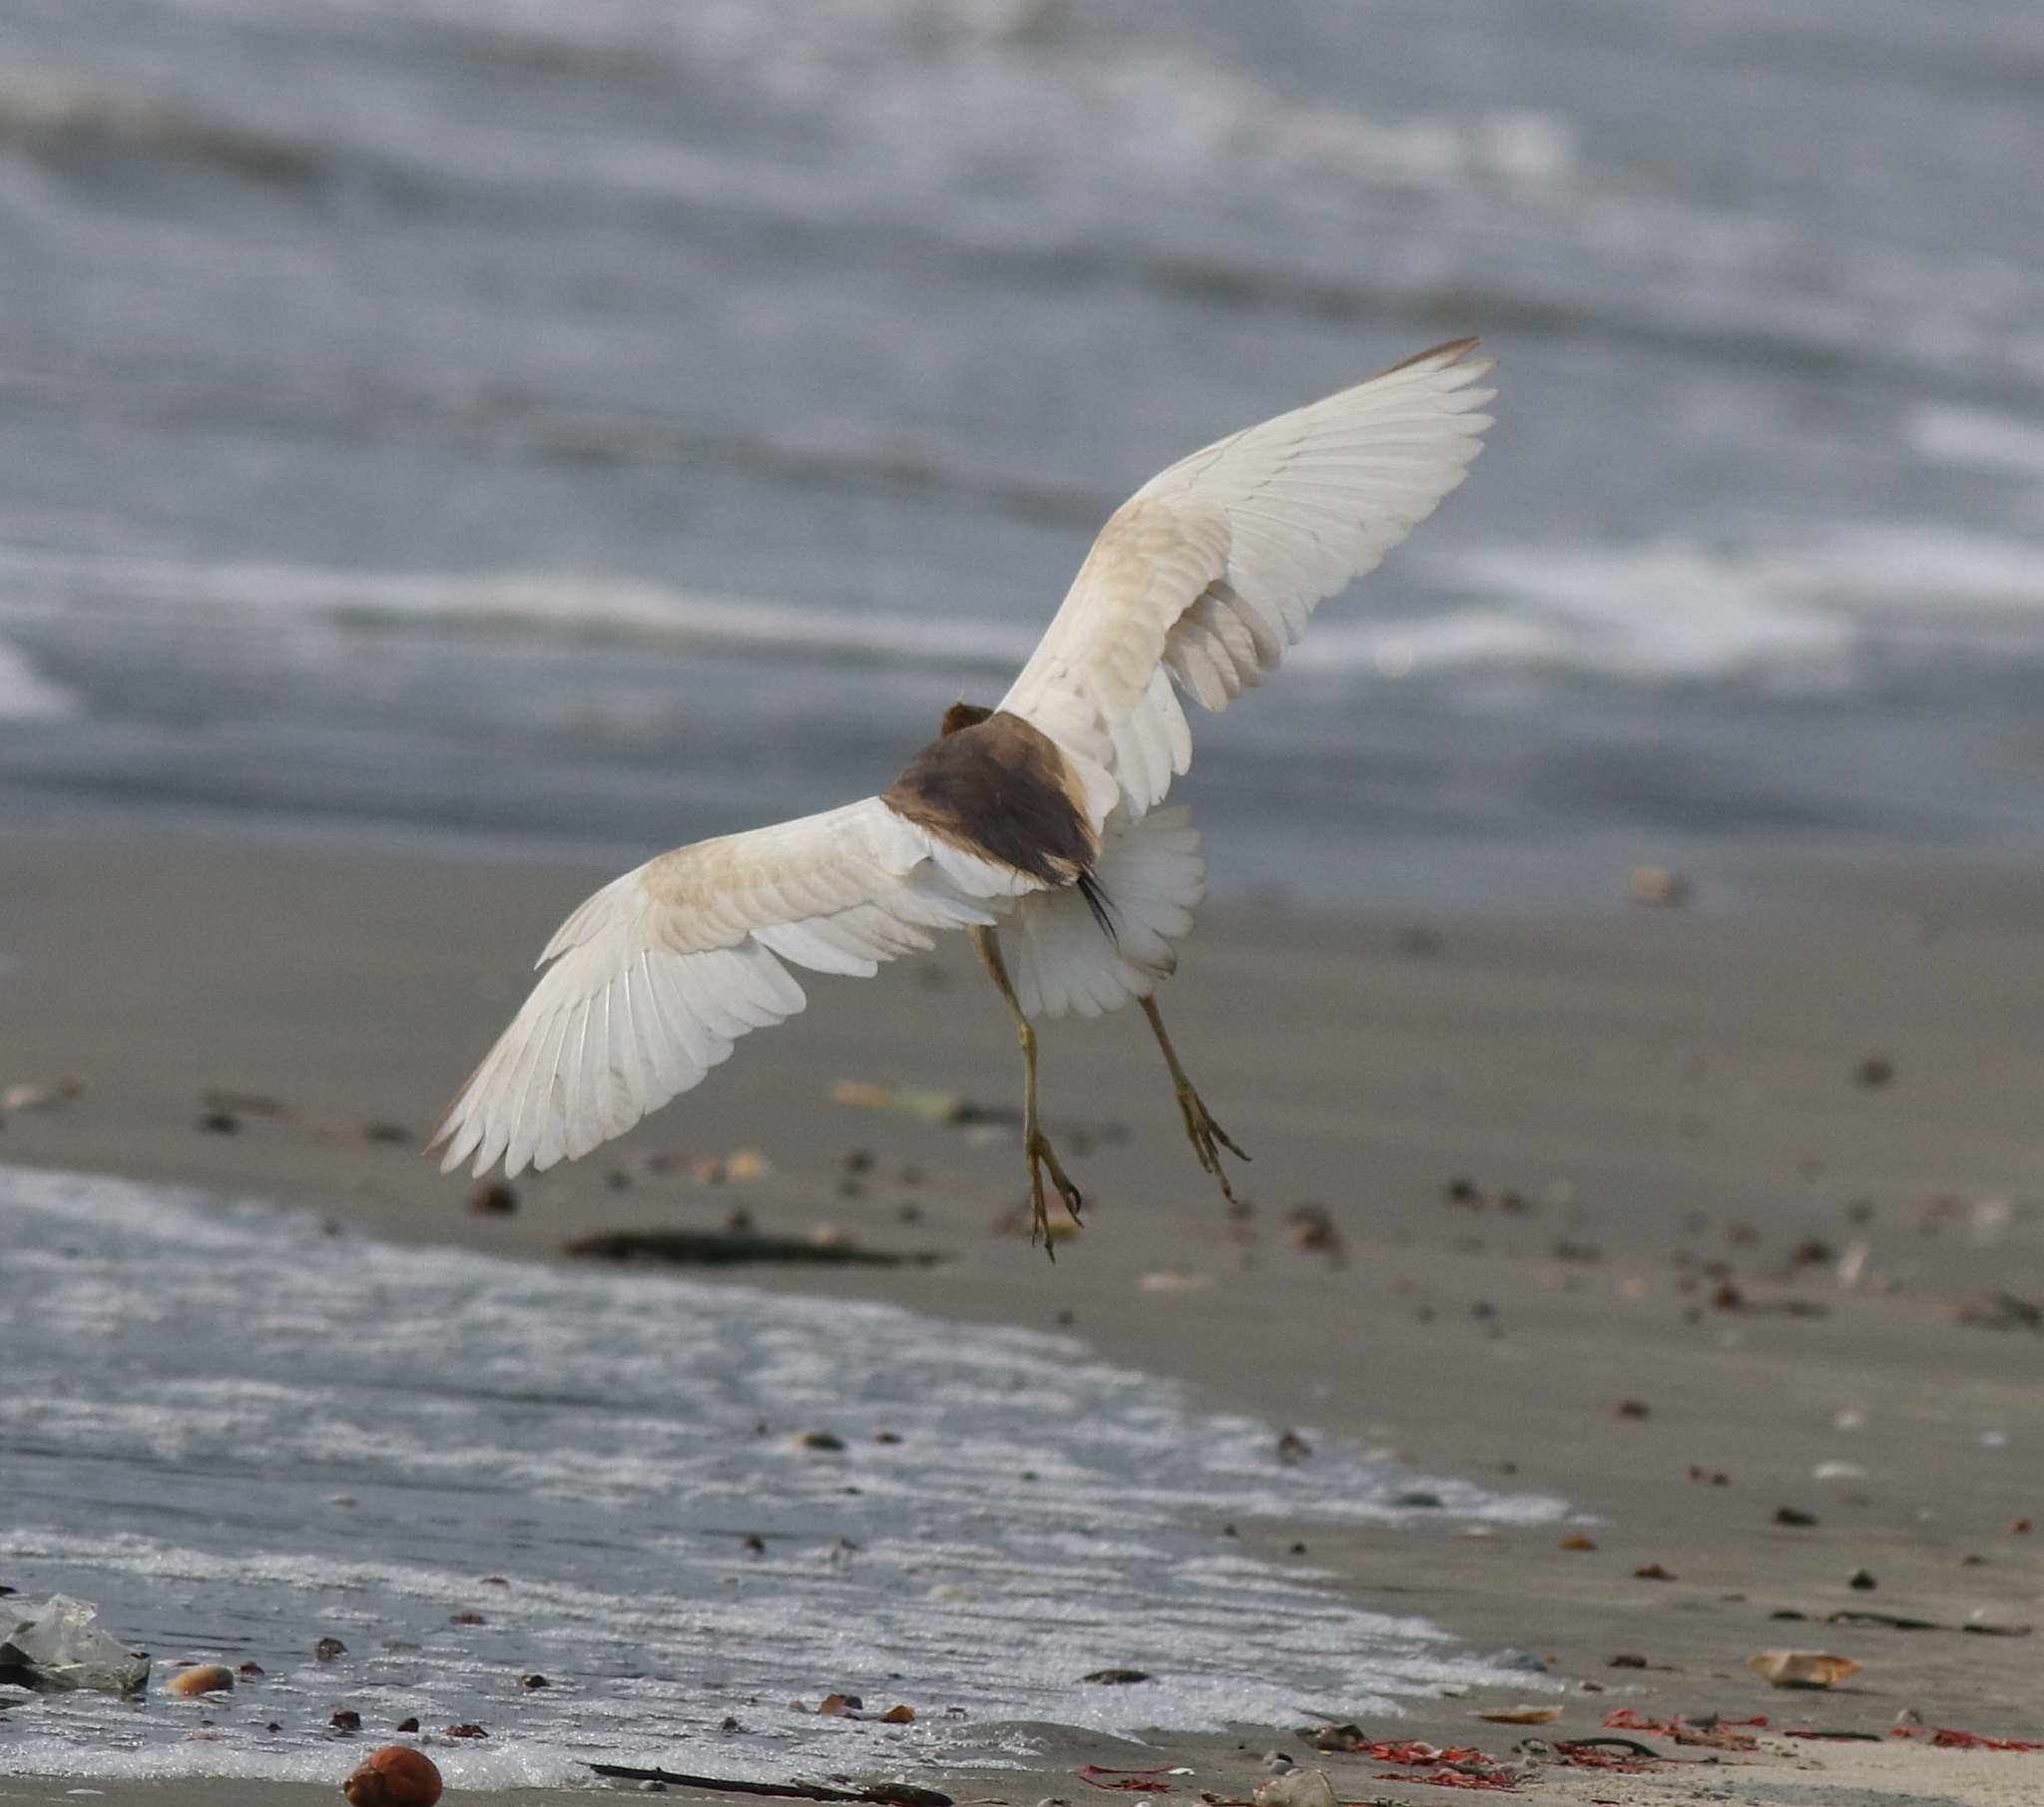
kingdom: Animalia
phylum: Chordata
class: Aves
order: Pelecaniformes
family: Ardeidae
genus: Ardeola
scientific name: Ardeola grayii
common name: Indian pond heron
